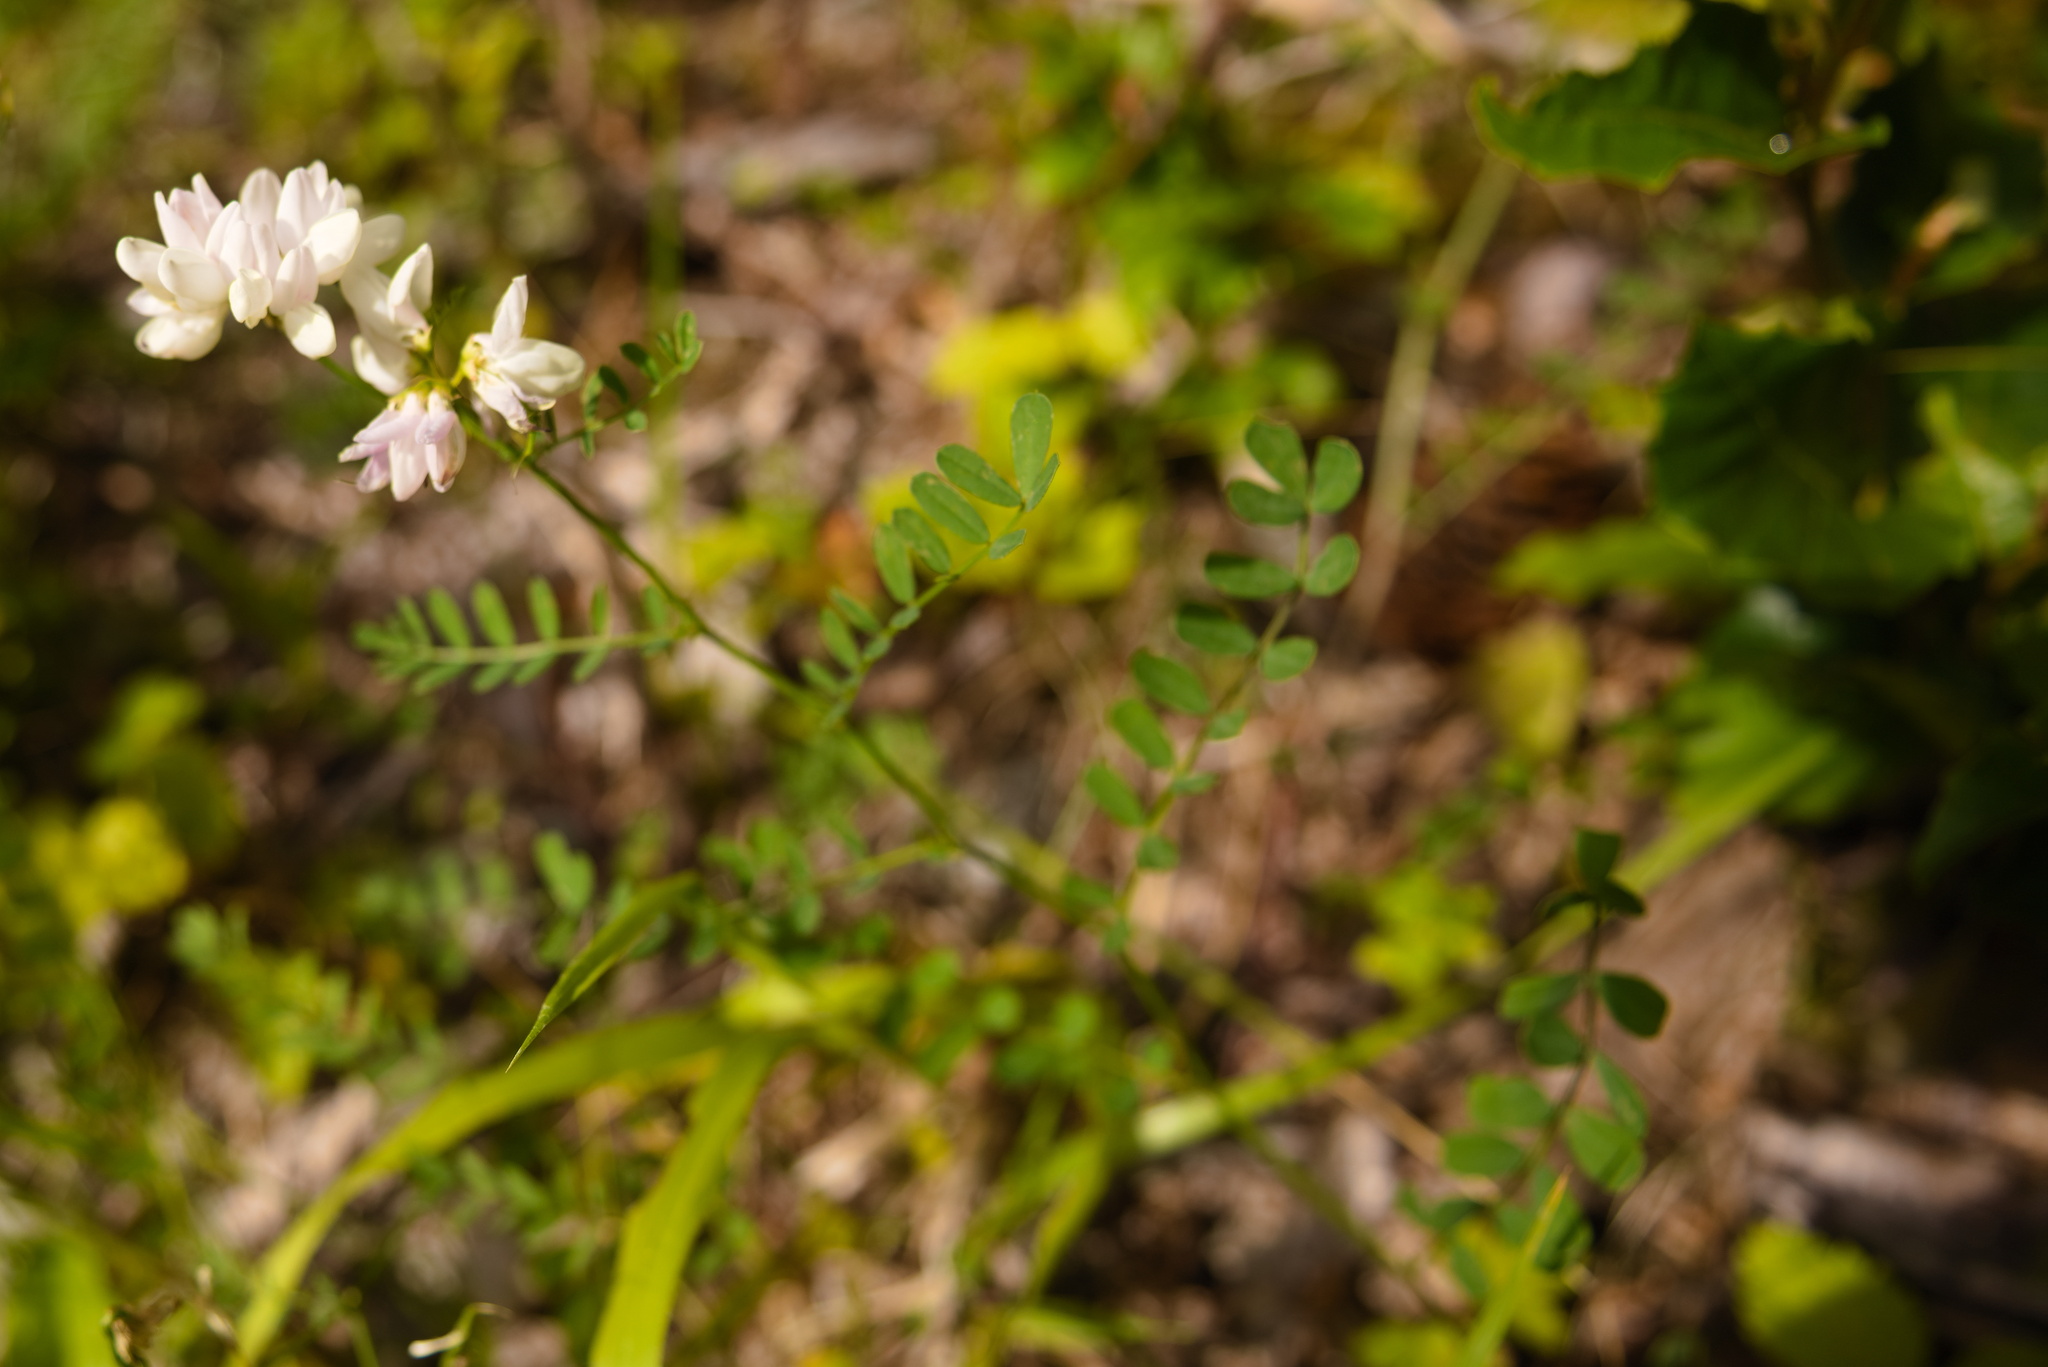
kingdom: Plantae
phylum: Tracheophyta
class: Magnoliopsida
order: Fabales
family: Fabaceae
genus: Coronilla
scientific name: Coronilla varia
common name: Crownvetch
